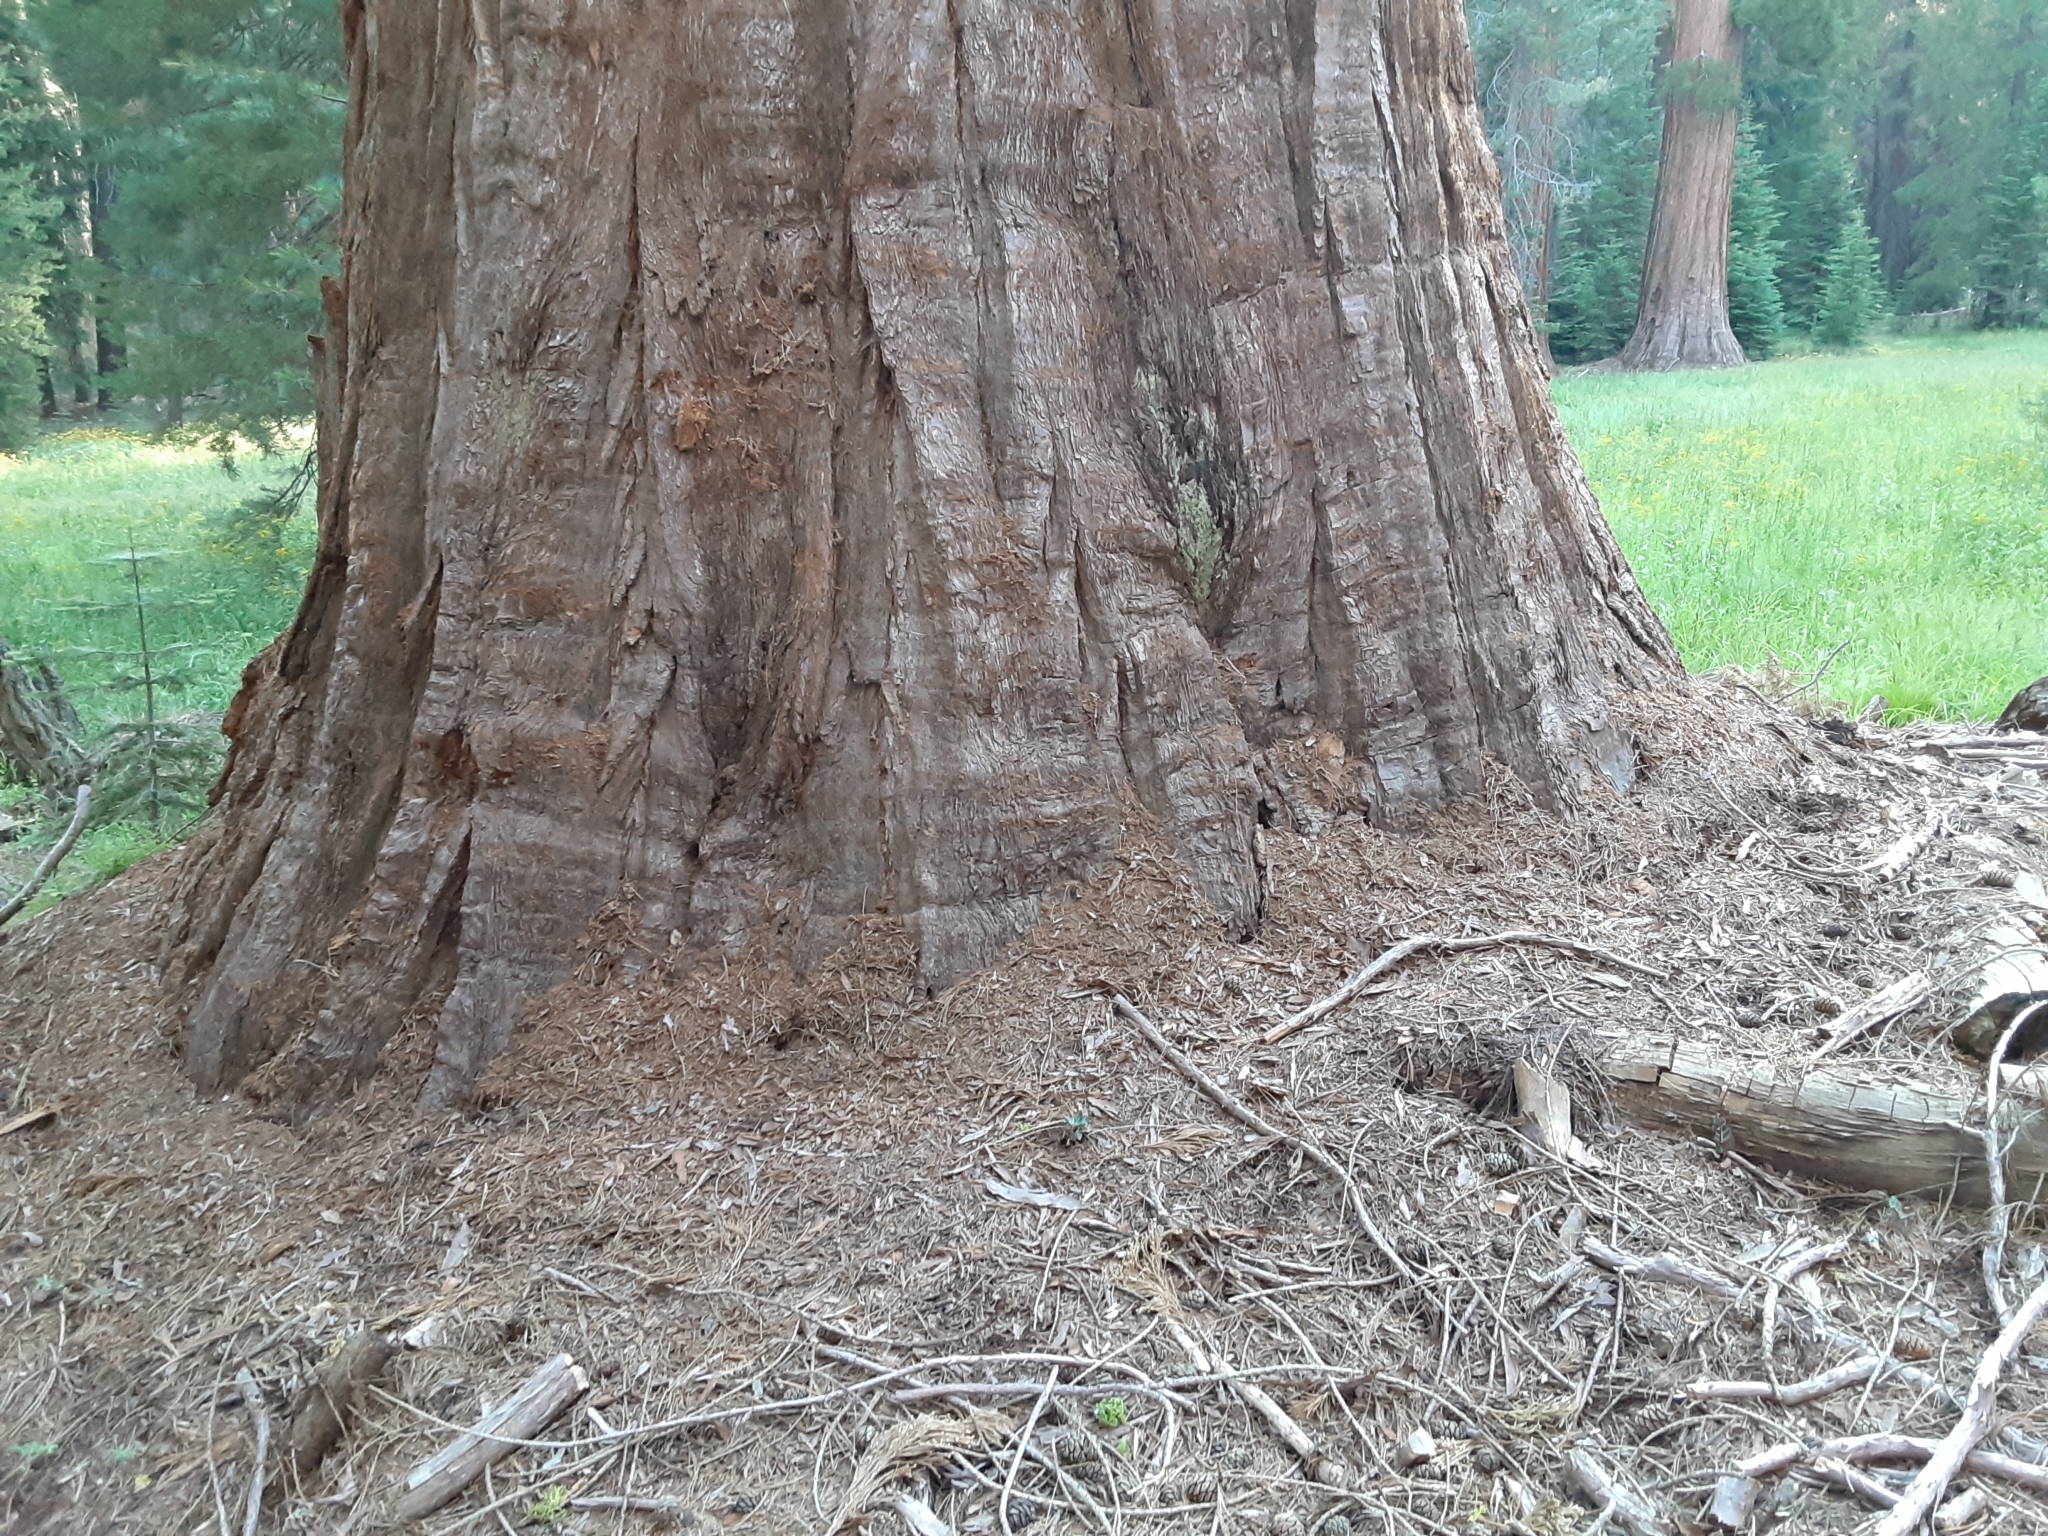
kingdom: Plantae
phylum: Tracheophyta
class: Pinopsida
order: Pinales
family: Cupressaceae
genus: Sequoiadendron
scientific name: Sequoiadendron giganteum
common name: Wellingtonia
